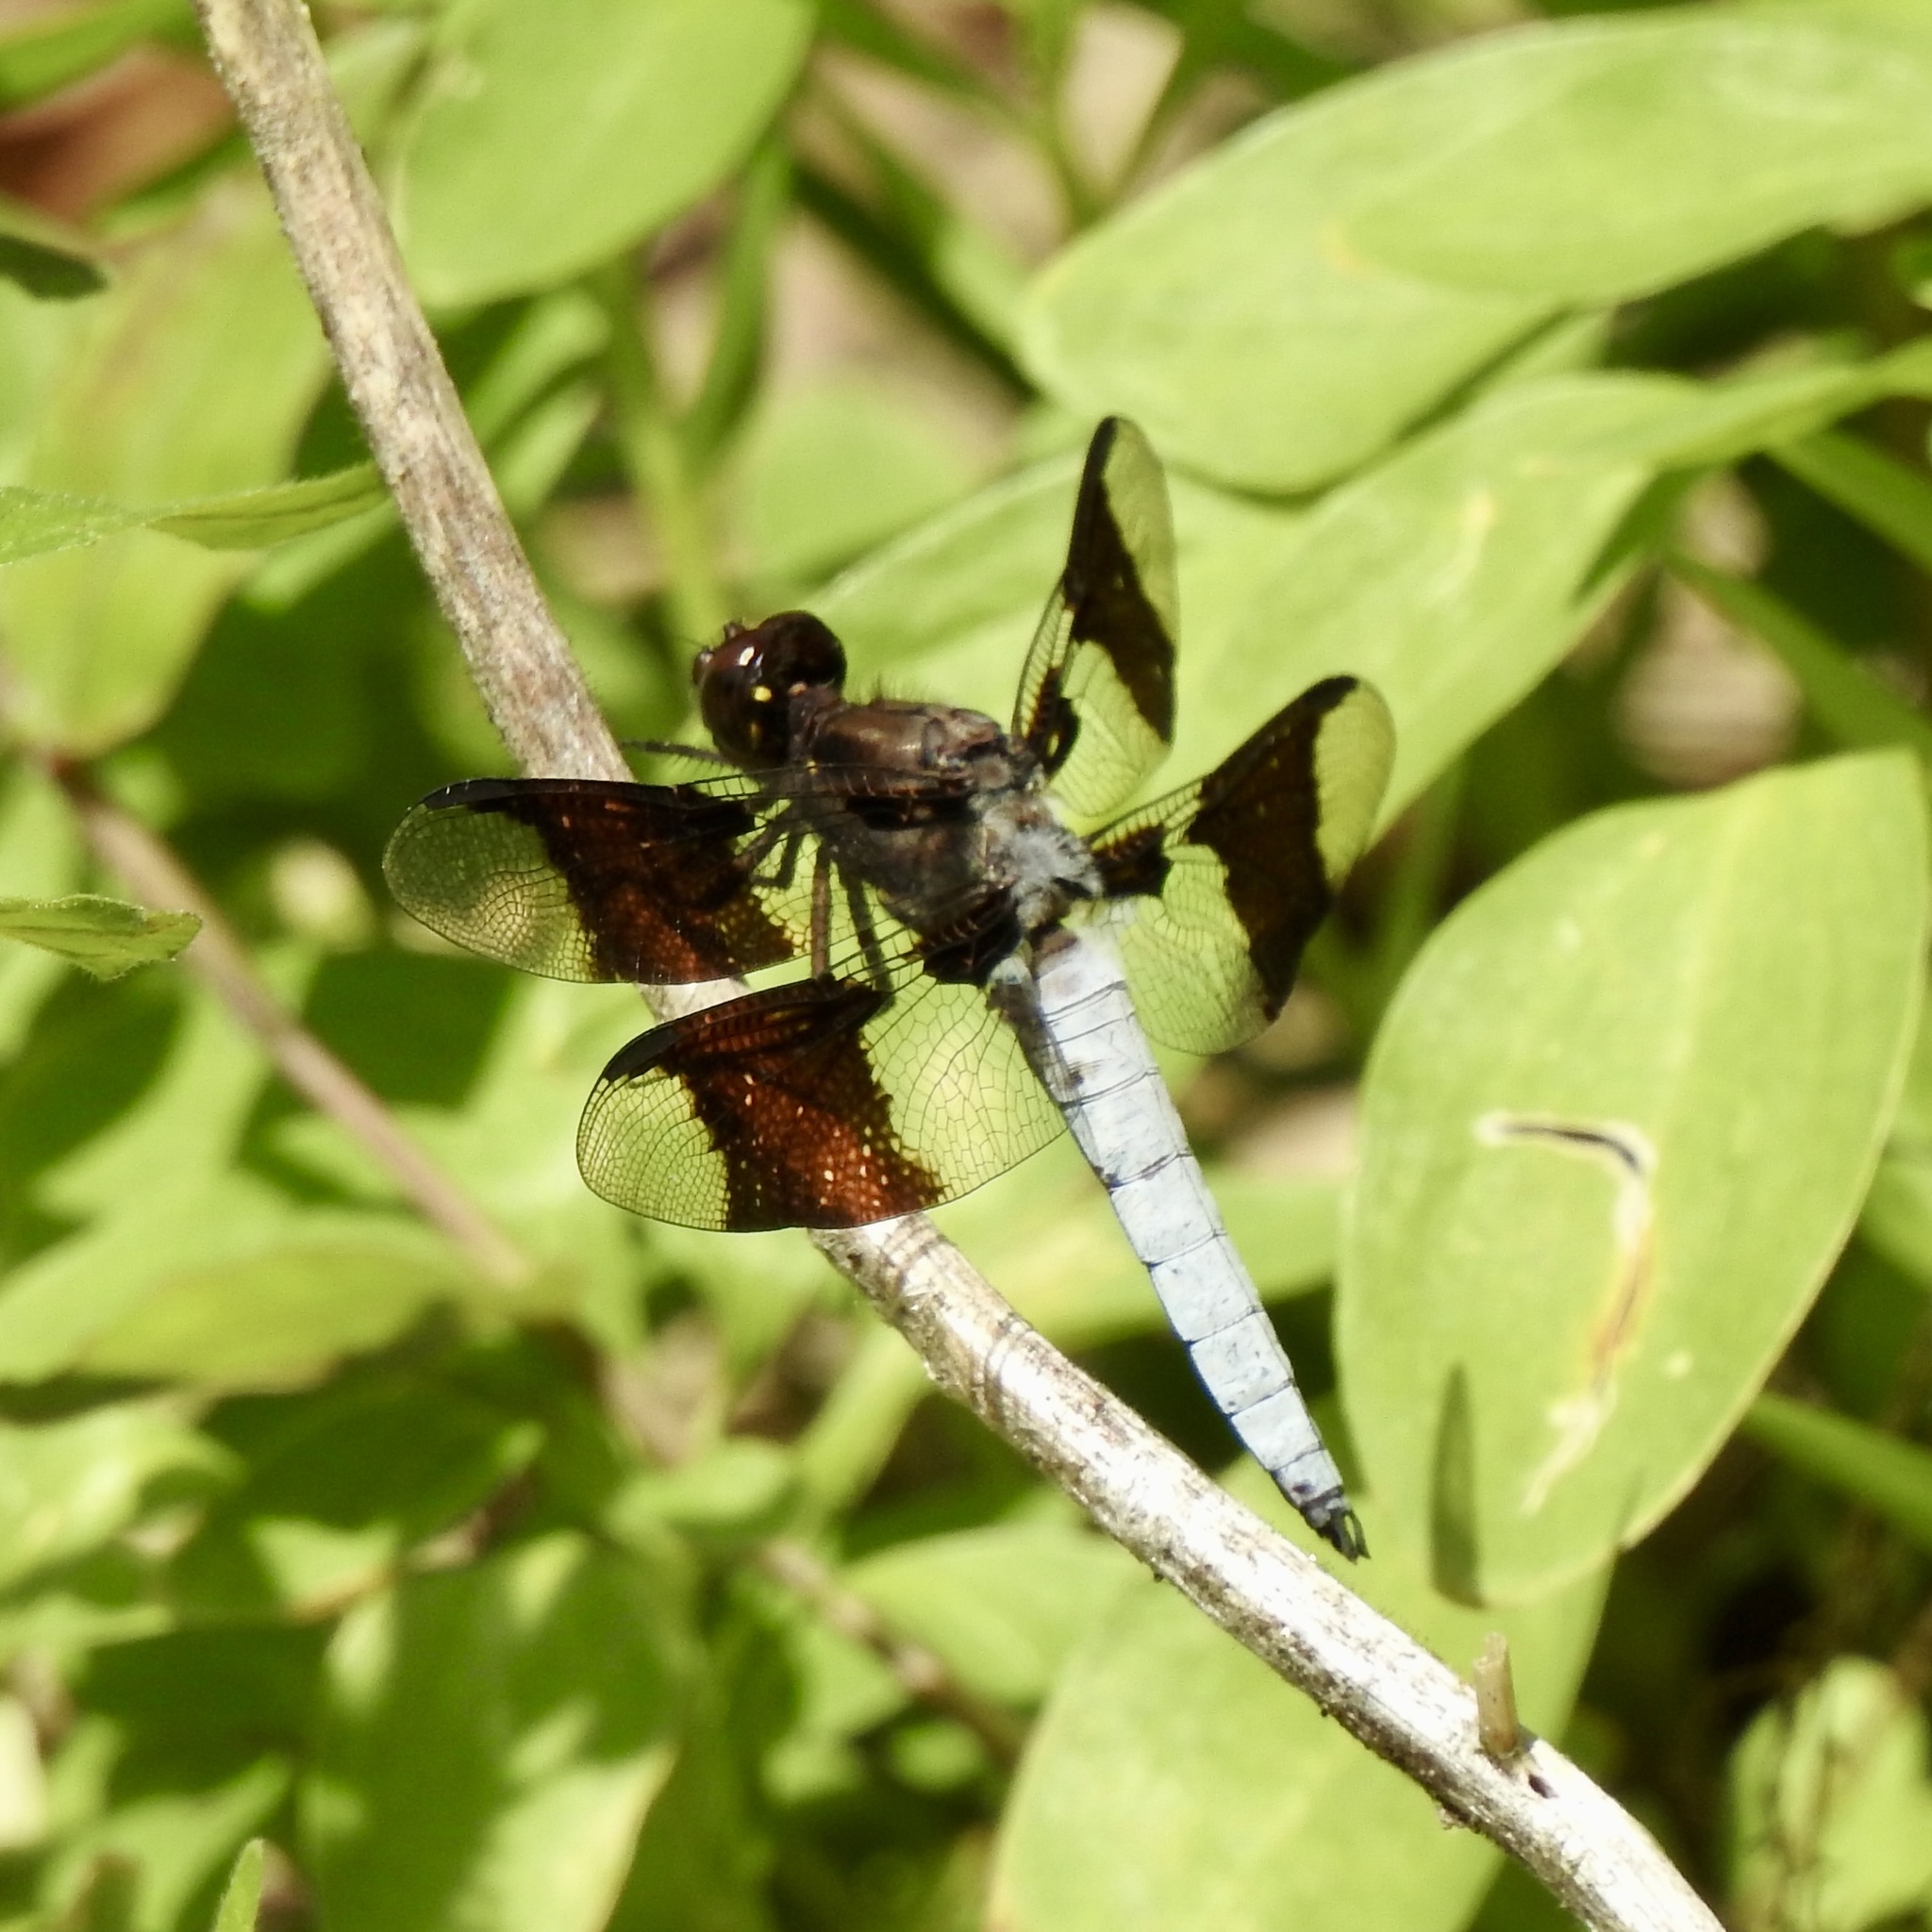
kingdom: Animalia
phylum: Arthropoda
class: Insecta
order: Odonata
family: Libellulidae
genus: Plathemis
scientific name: Plathemis lydia
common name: Common whitetail
